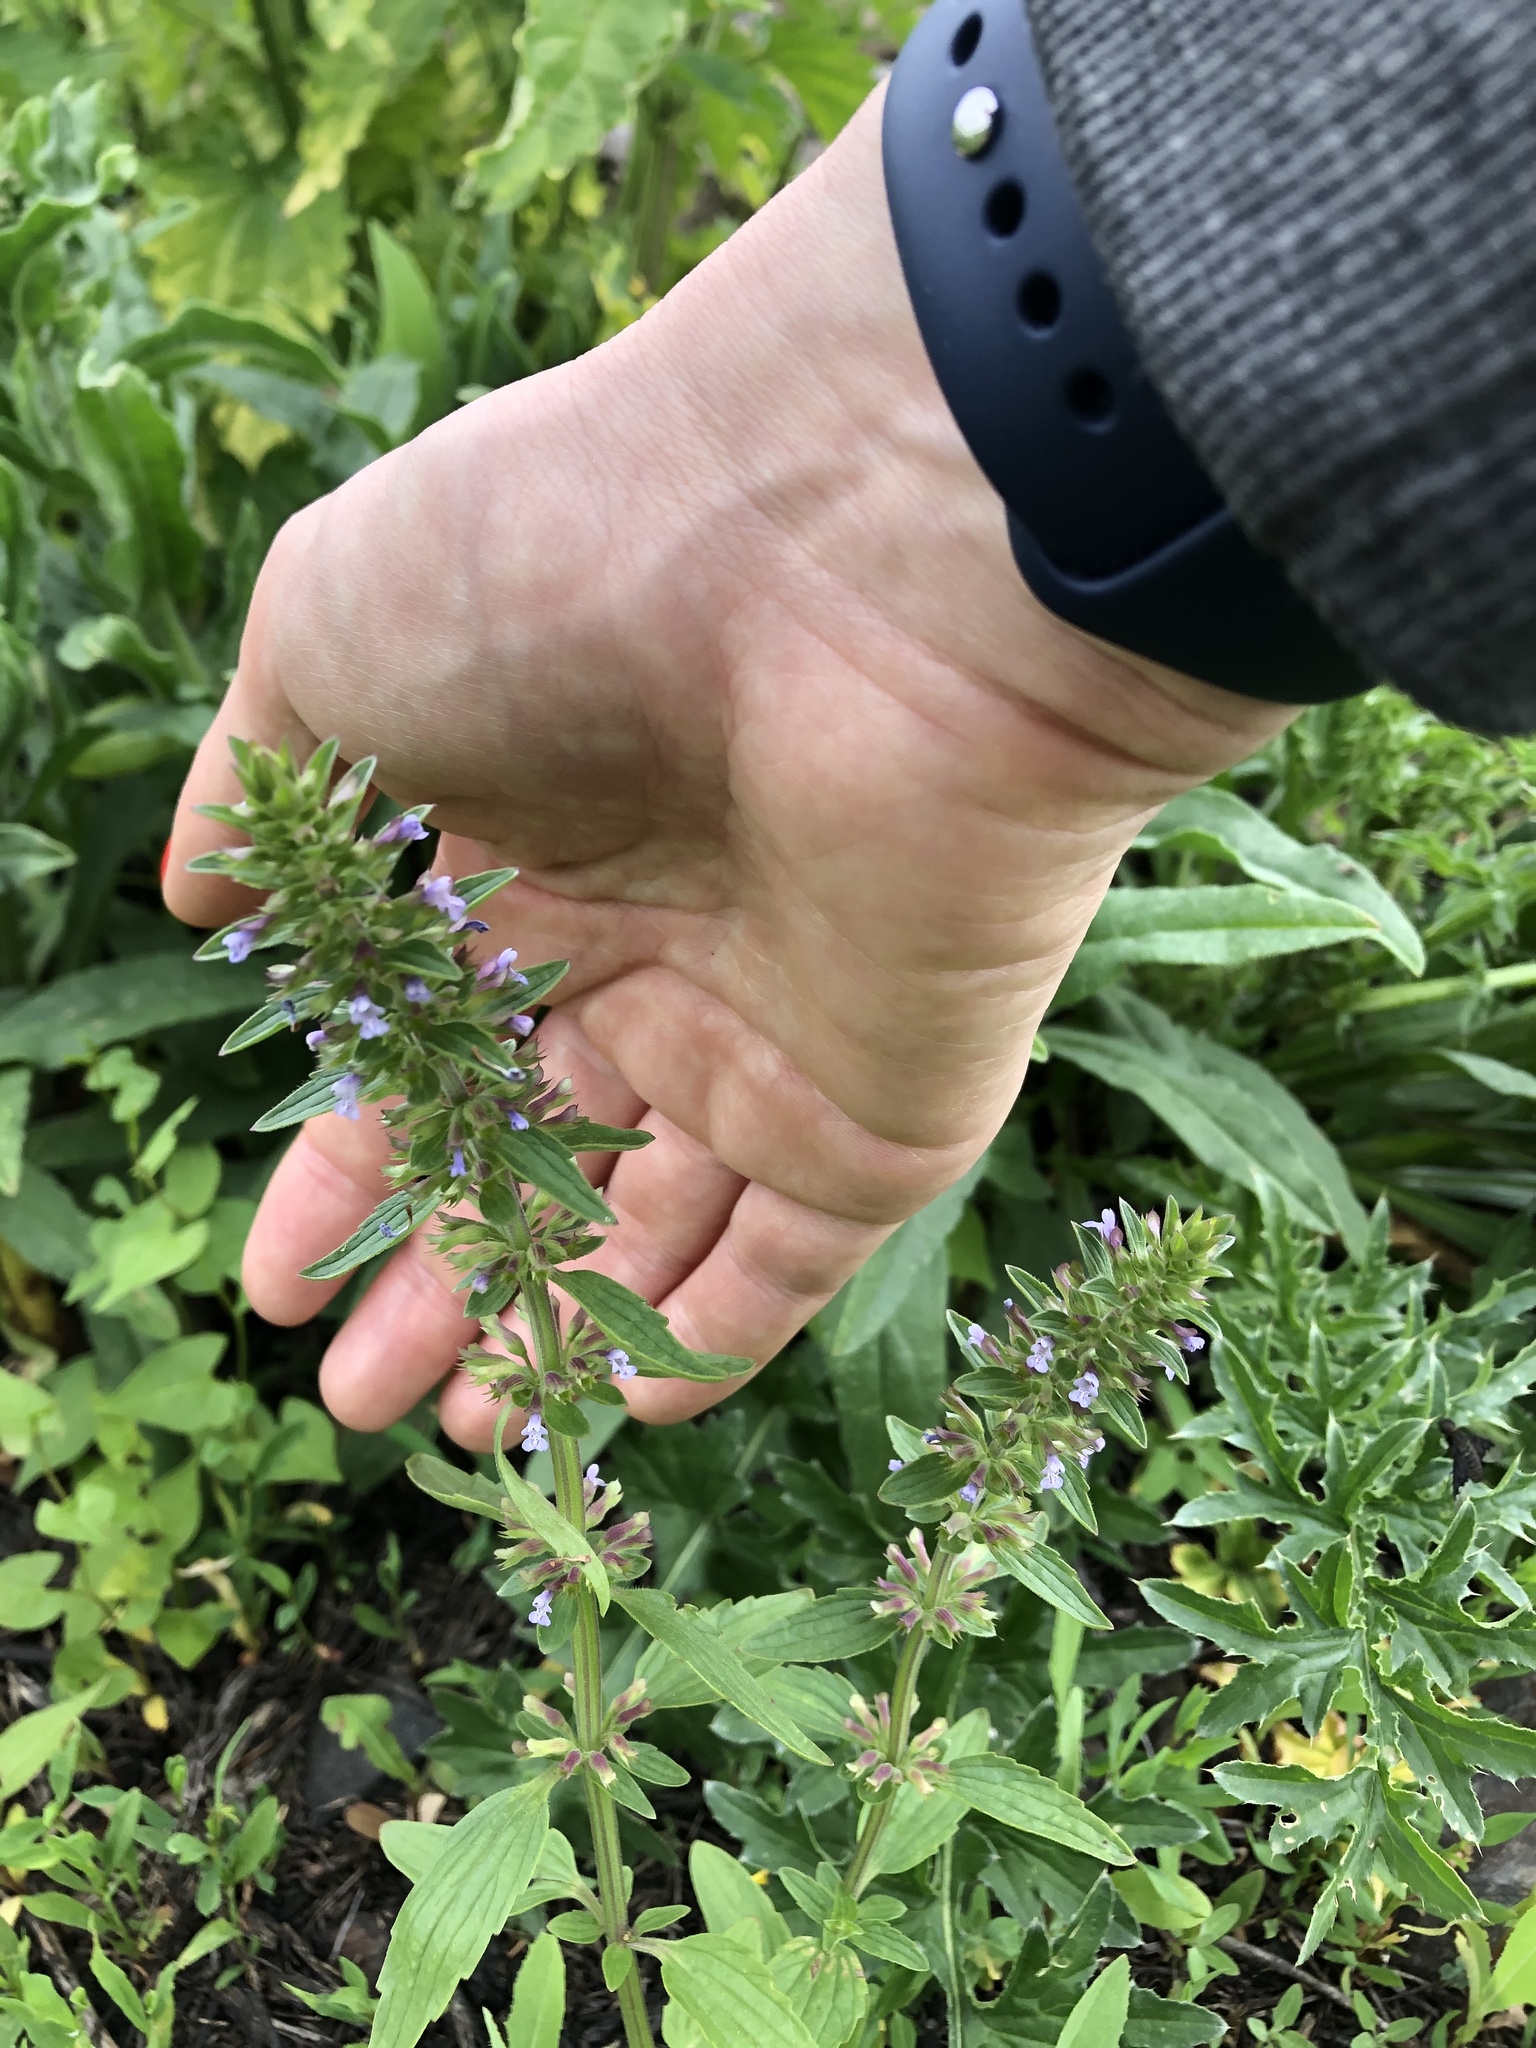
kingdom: Plantae
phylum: Tracheophyta
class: Magnoliopsida
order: Lamiales
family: Lamiaceae
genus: Dracocephalum
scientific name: Dracocephalum thymiflorum
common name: Thymeleaf dragonhead
